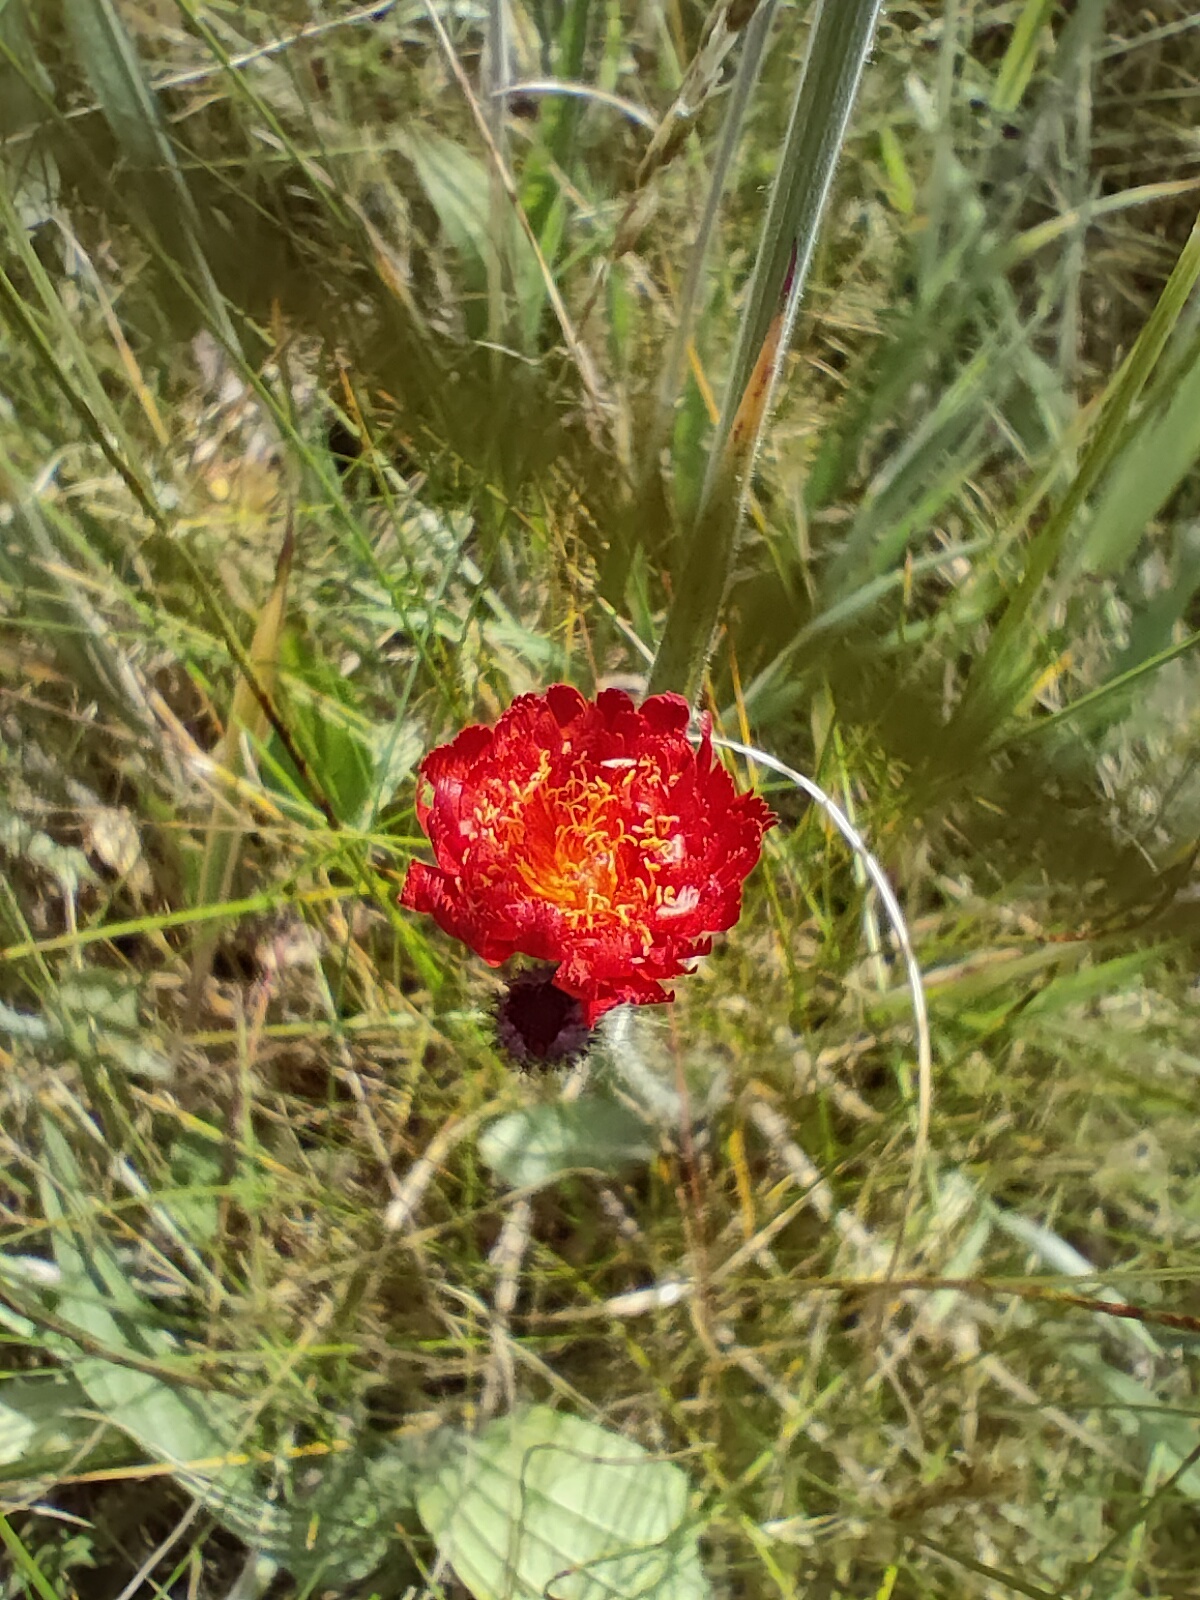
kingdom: Plantae
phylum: Tracheophyta
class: Magnoliopsida
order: Asterales
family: Asteraceae
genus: Pilosella
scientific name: Pilosella aurantiaca
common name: Fox-and-cubs
